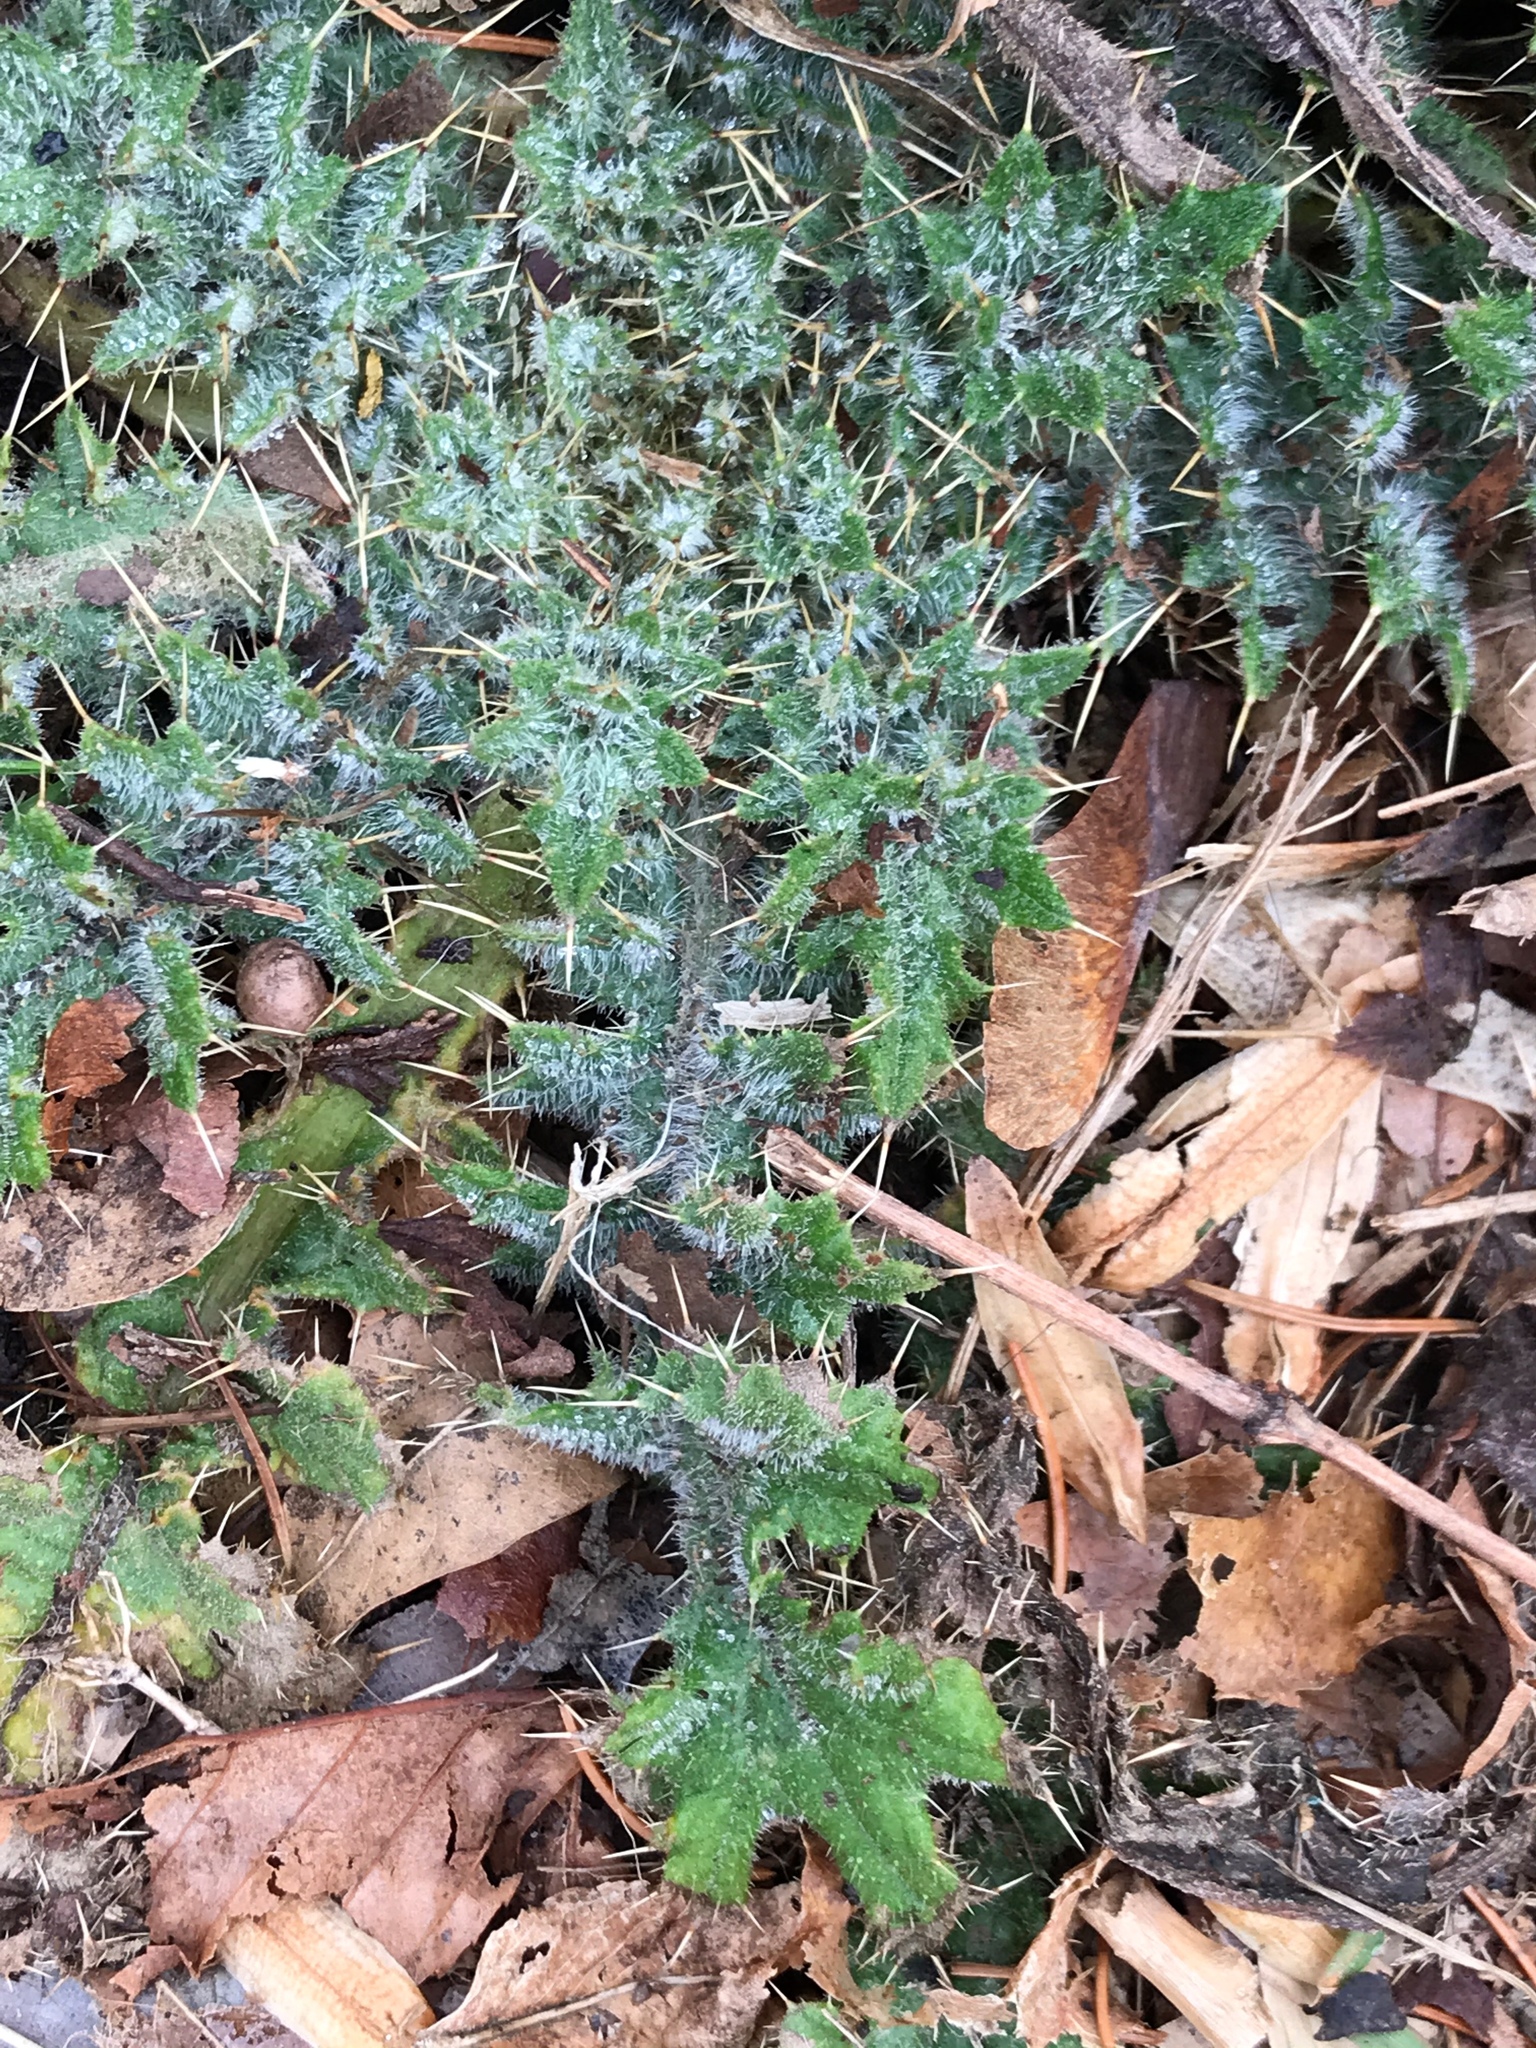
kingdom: Plantae
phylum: Tracheophyta
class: Magnoliopsida
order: Asterales
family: Asteraceae
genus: Cirsium
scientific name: Cirsium vulgare
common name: Bull thistle
